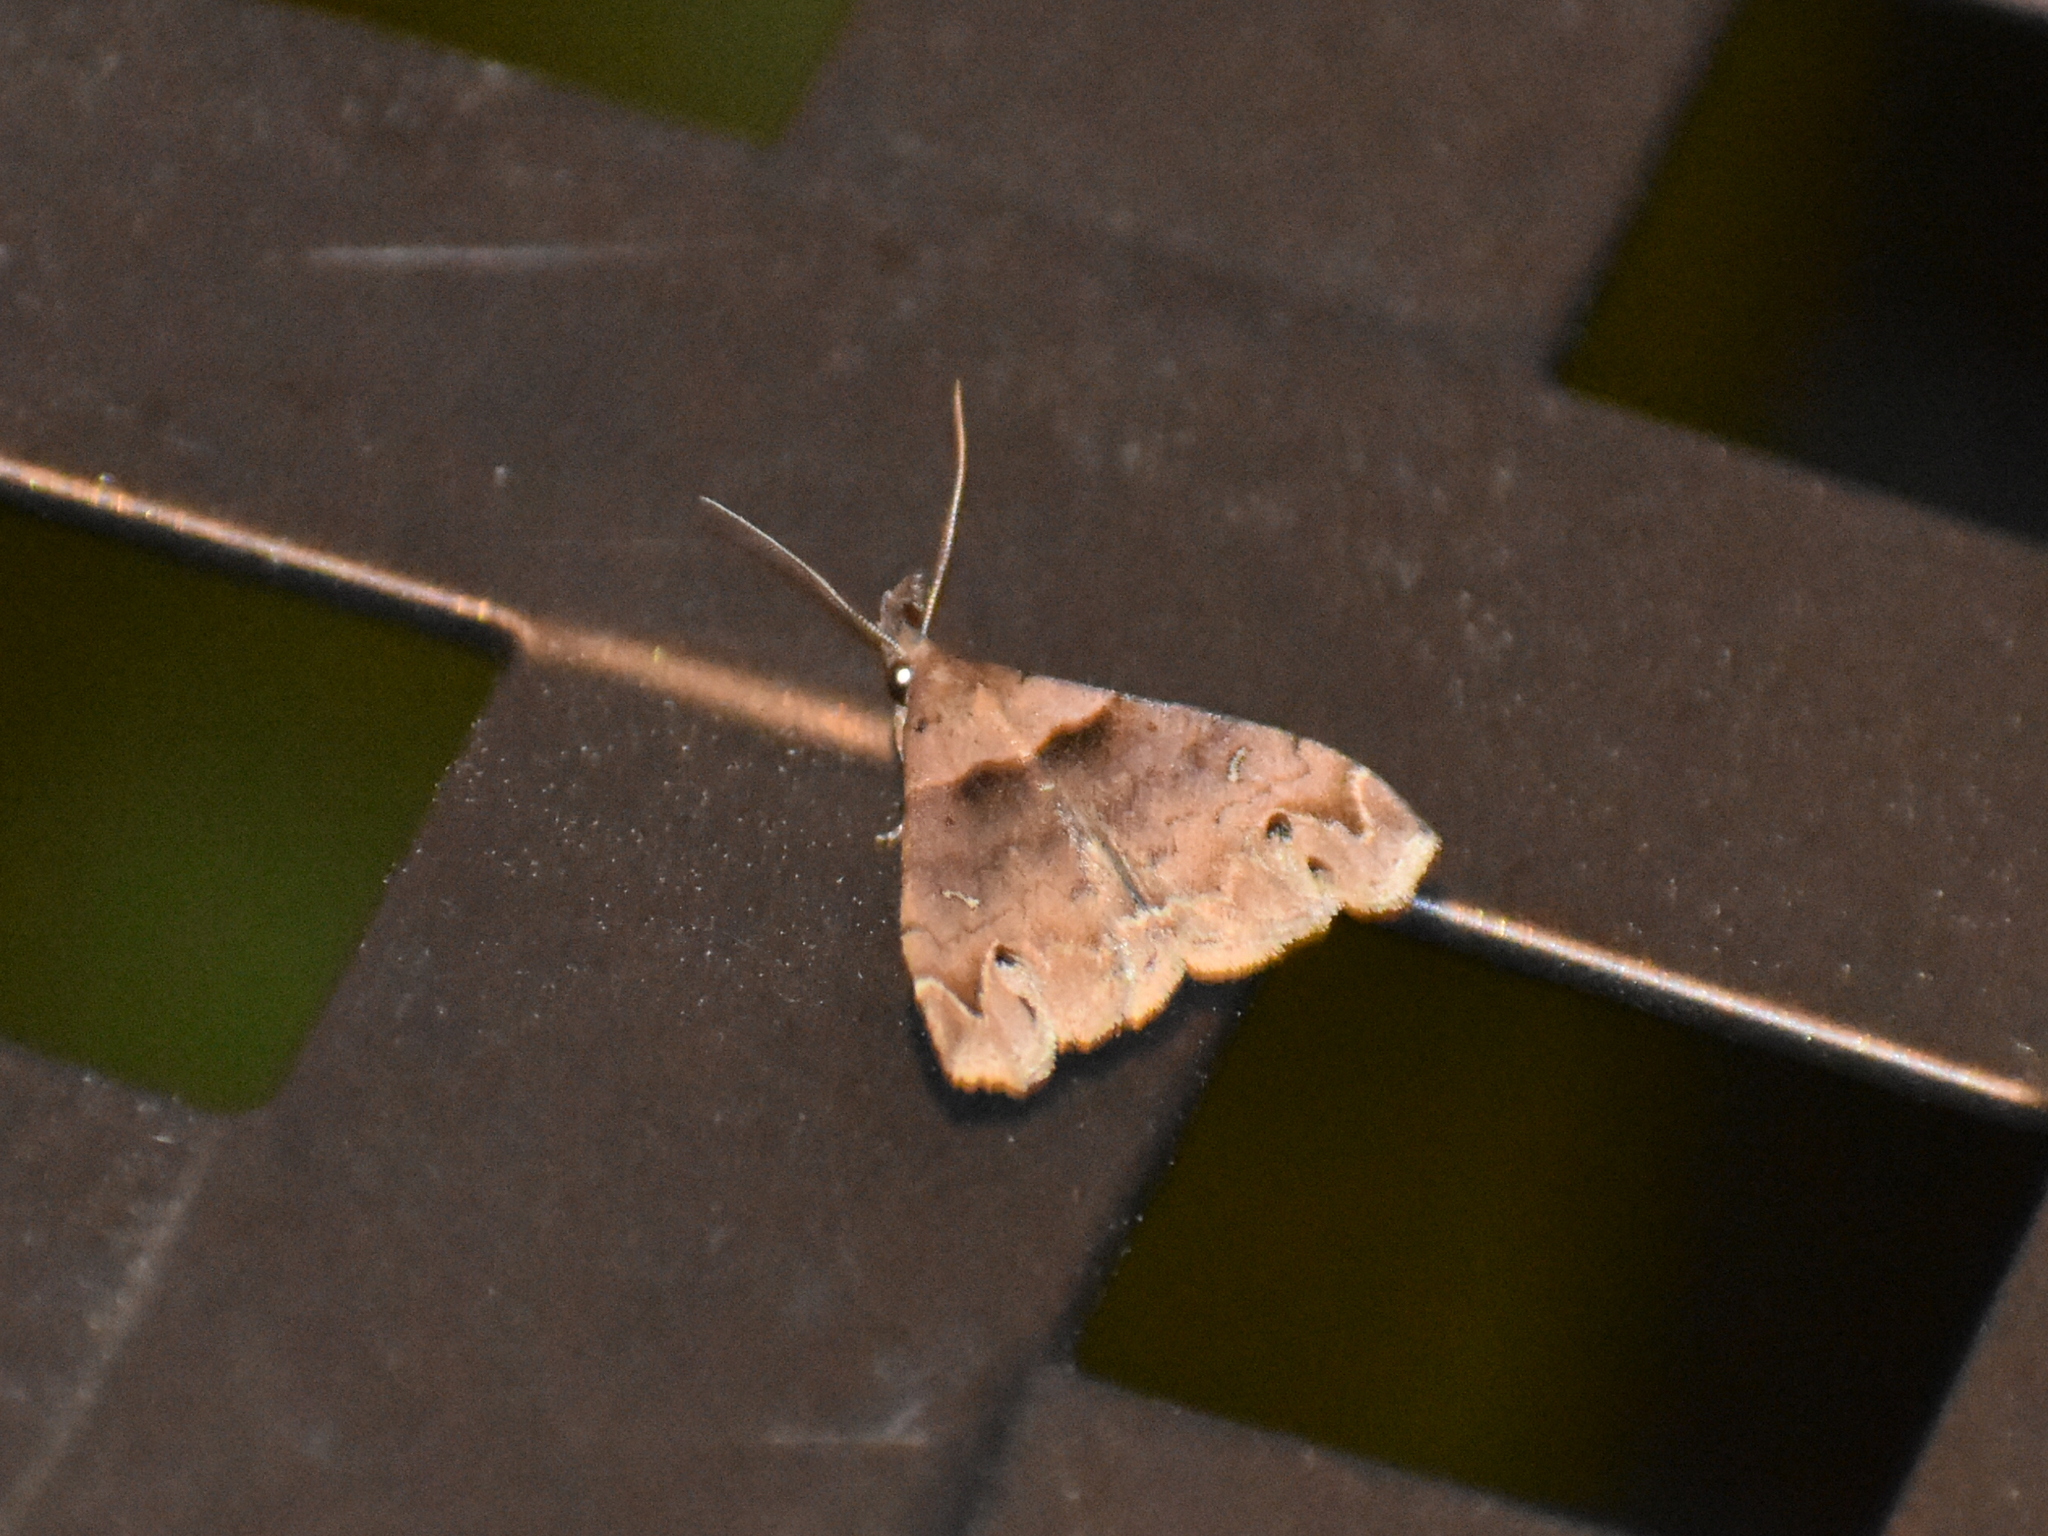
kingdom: Animalia
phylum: Arthropoda
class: Insecta
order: Lepidoptera
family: Erebidae
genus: Lascoria
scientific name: Lascoria ambigualis
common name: Ambiguous moth
